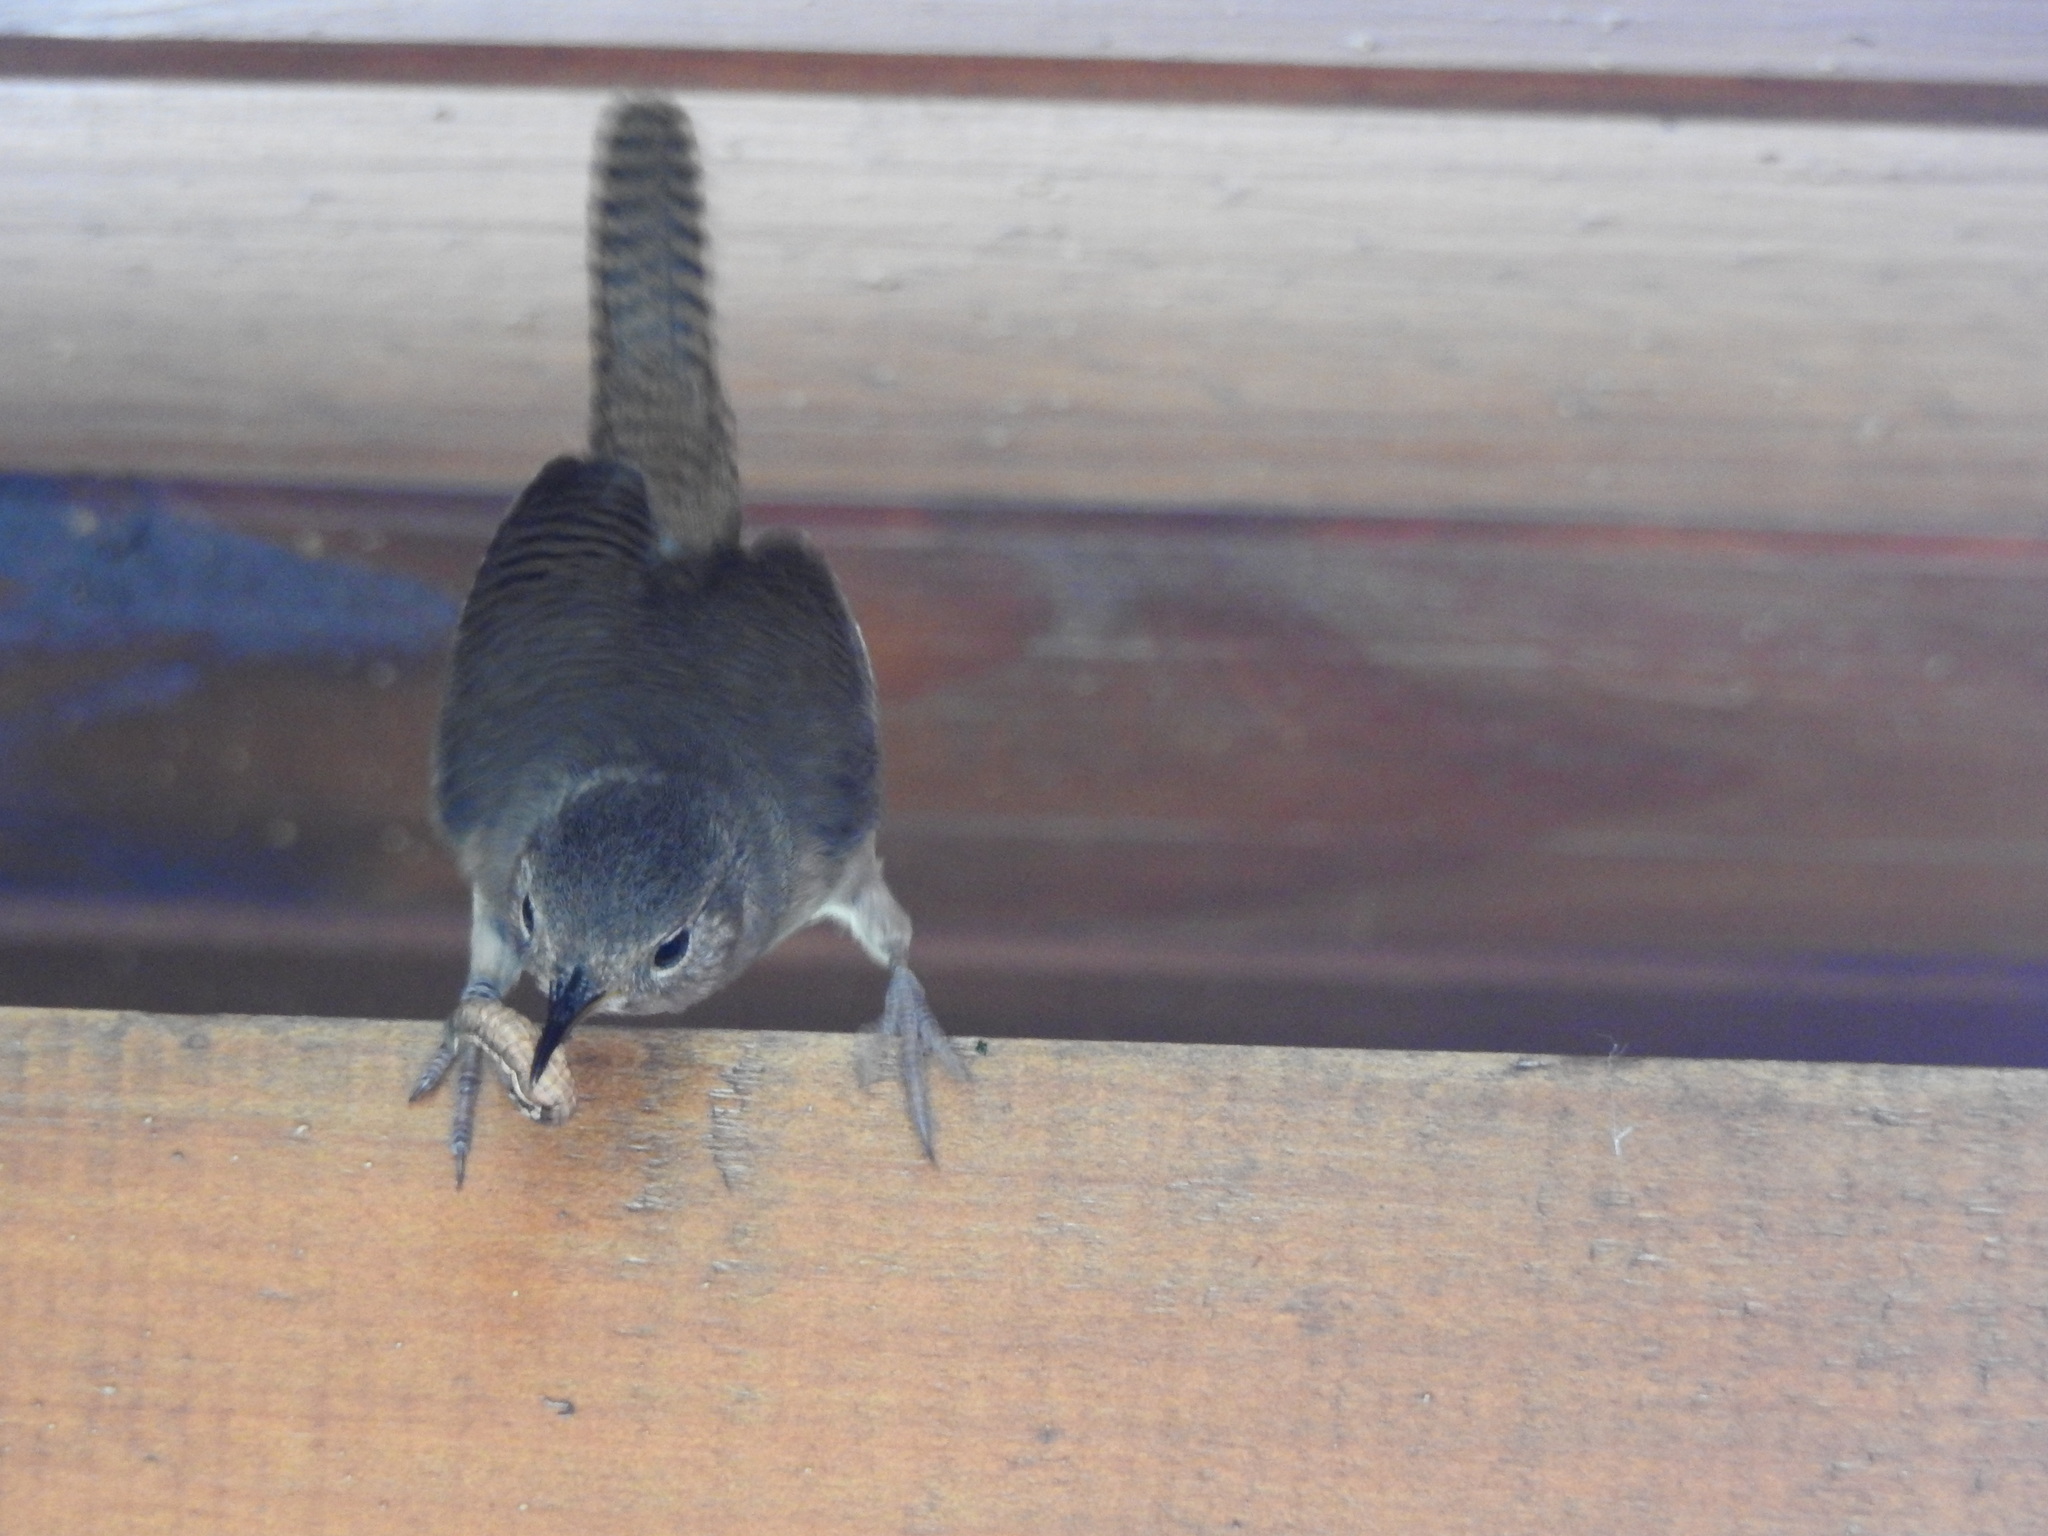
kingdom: Animalia
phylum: Chordata
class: Aves
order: Passeriformes
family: Troglodytidae
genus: Troglodytes
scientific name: Troglodytes aedon
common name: House wren
